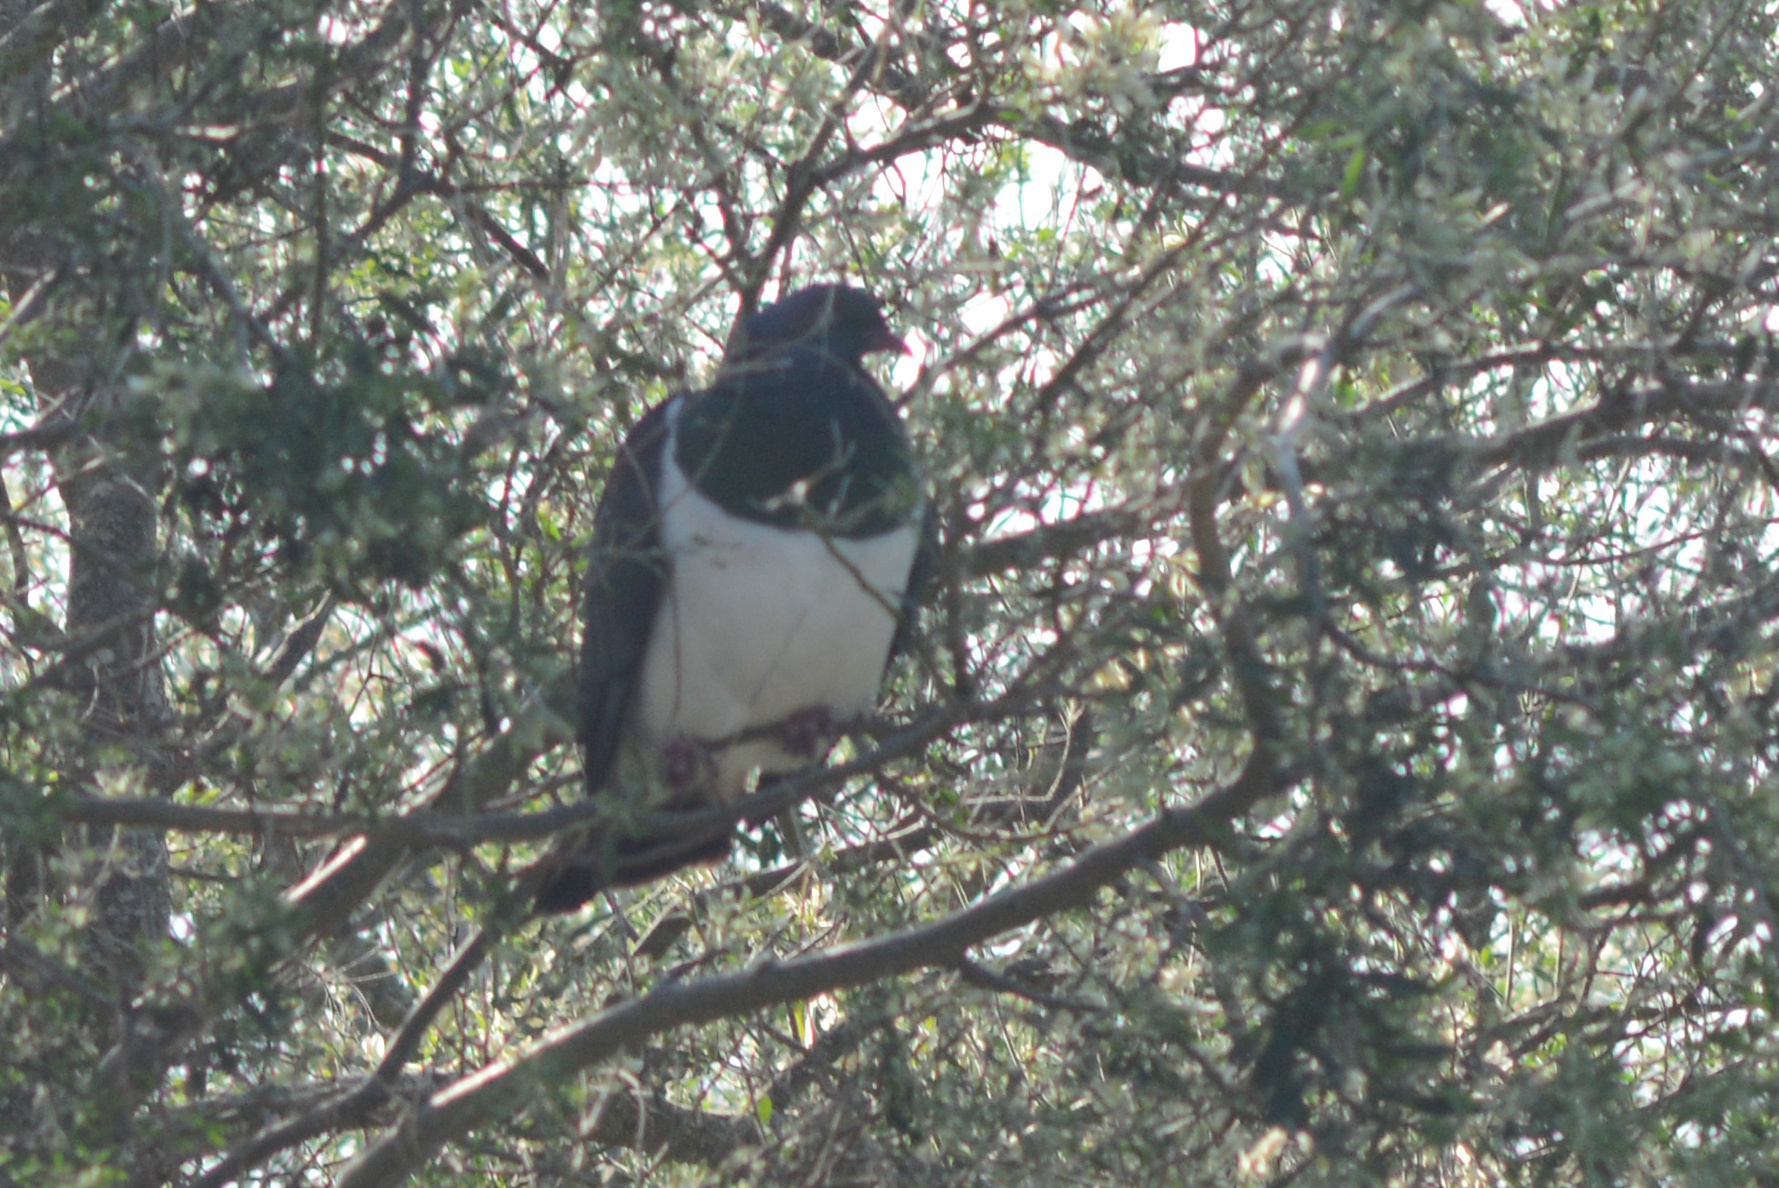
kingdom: Animalia
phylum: Chordata
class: Aves
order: Columbiformes
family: Columbidae
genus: Hemiphaga
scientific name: Hemiphaga novaeseelandiae
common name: New zealand pigeon
